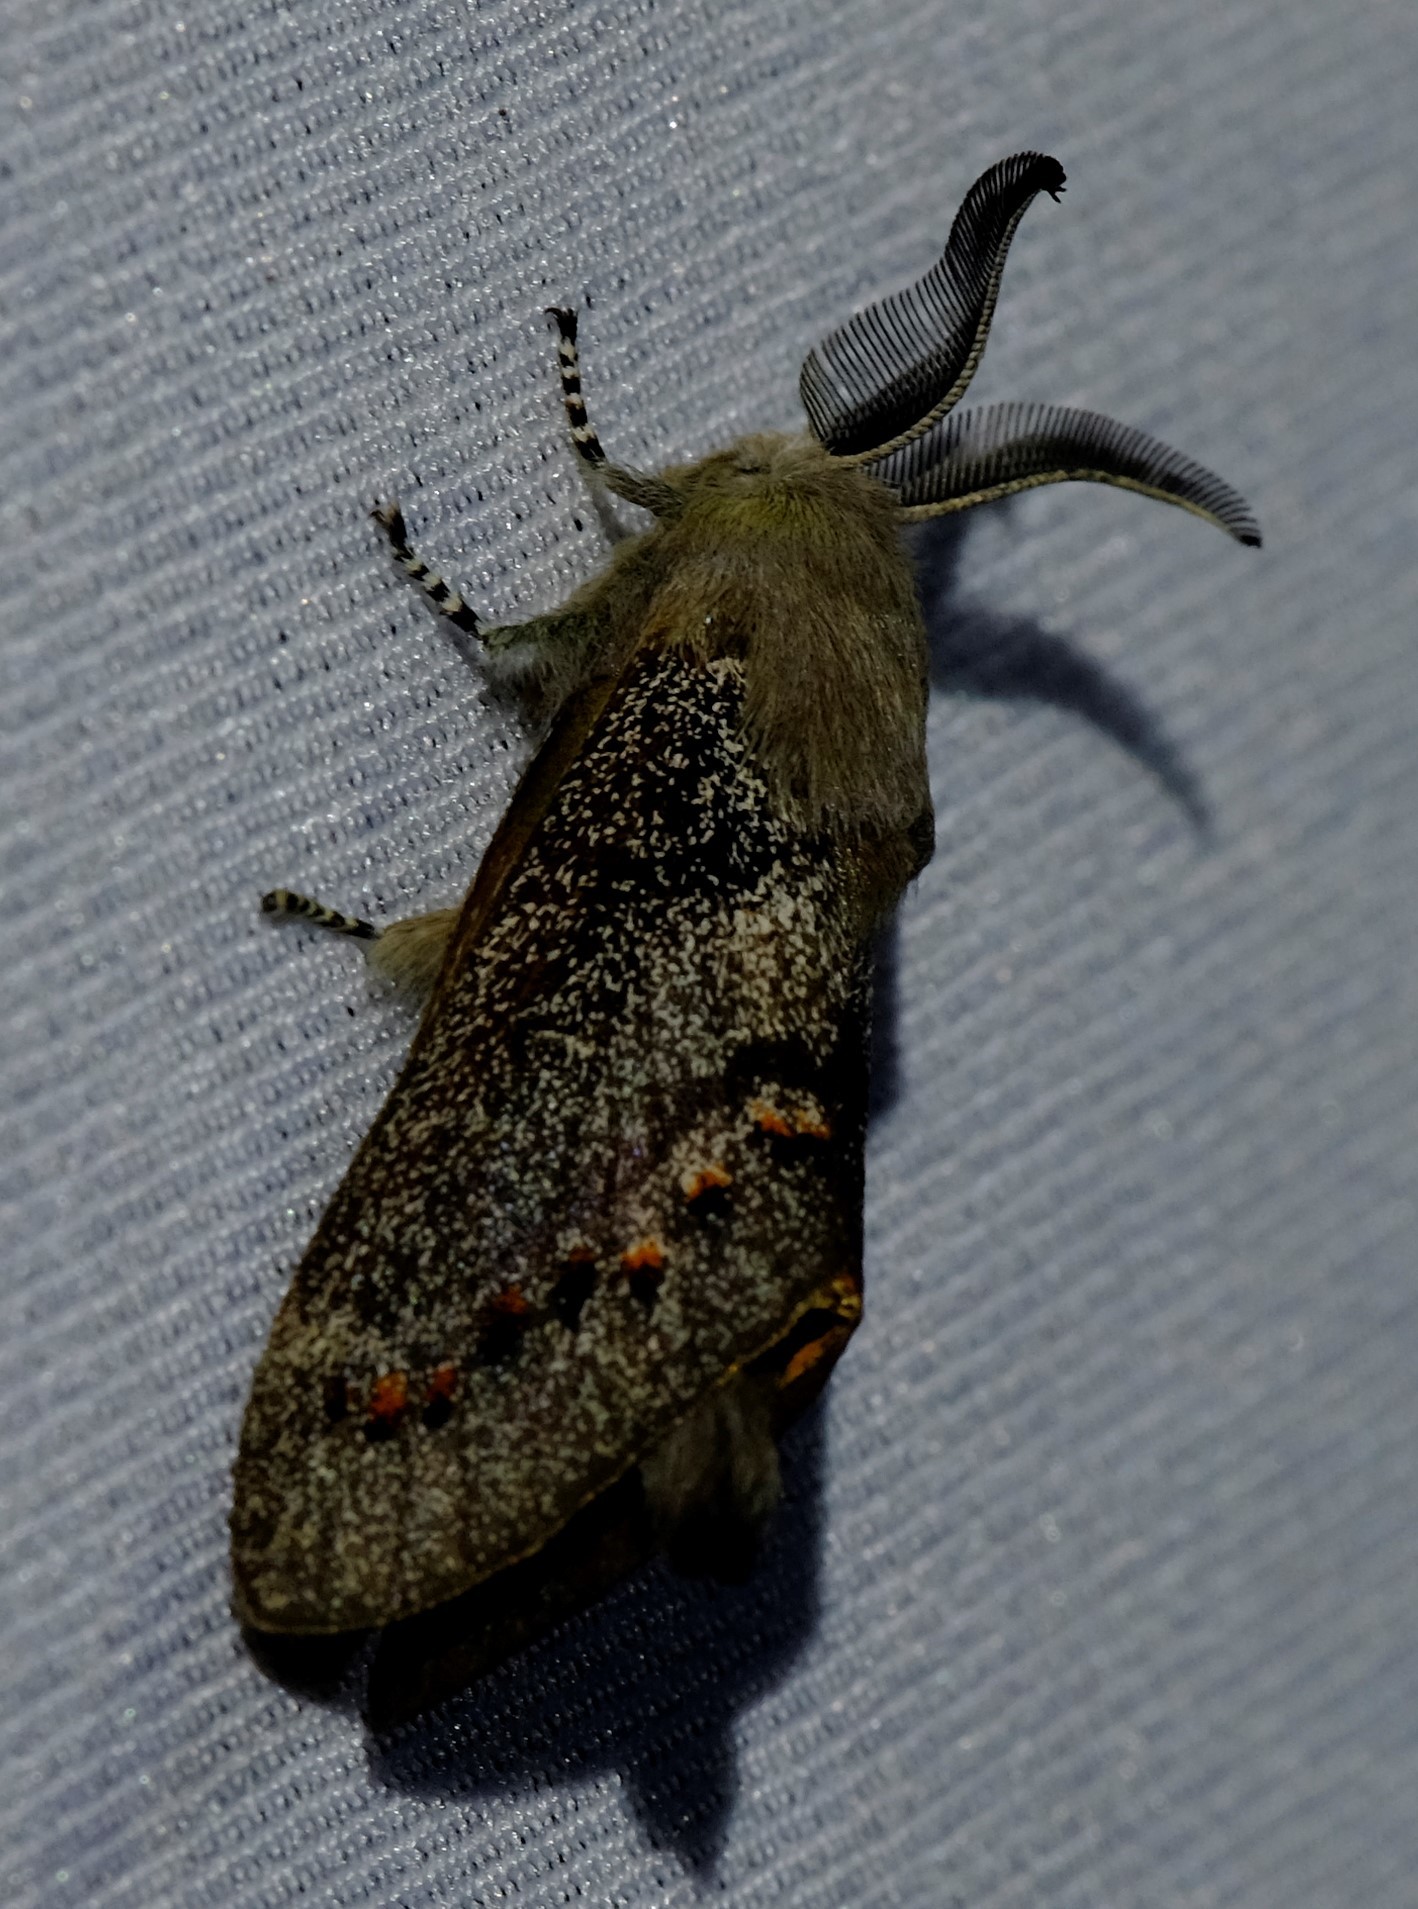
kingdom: Animalia
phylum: Arthropoda
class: Insecta
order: Lepidoptera
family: Lasiocampidae
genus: Pinara
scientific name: Pinara obliqua
